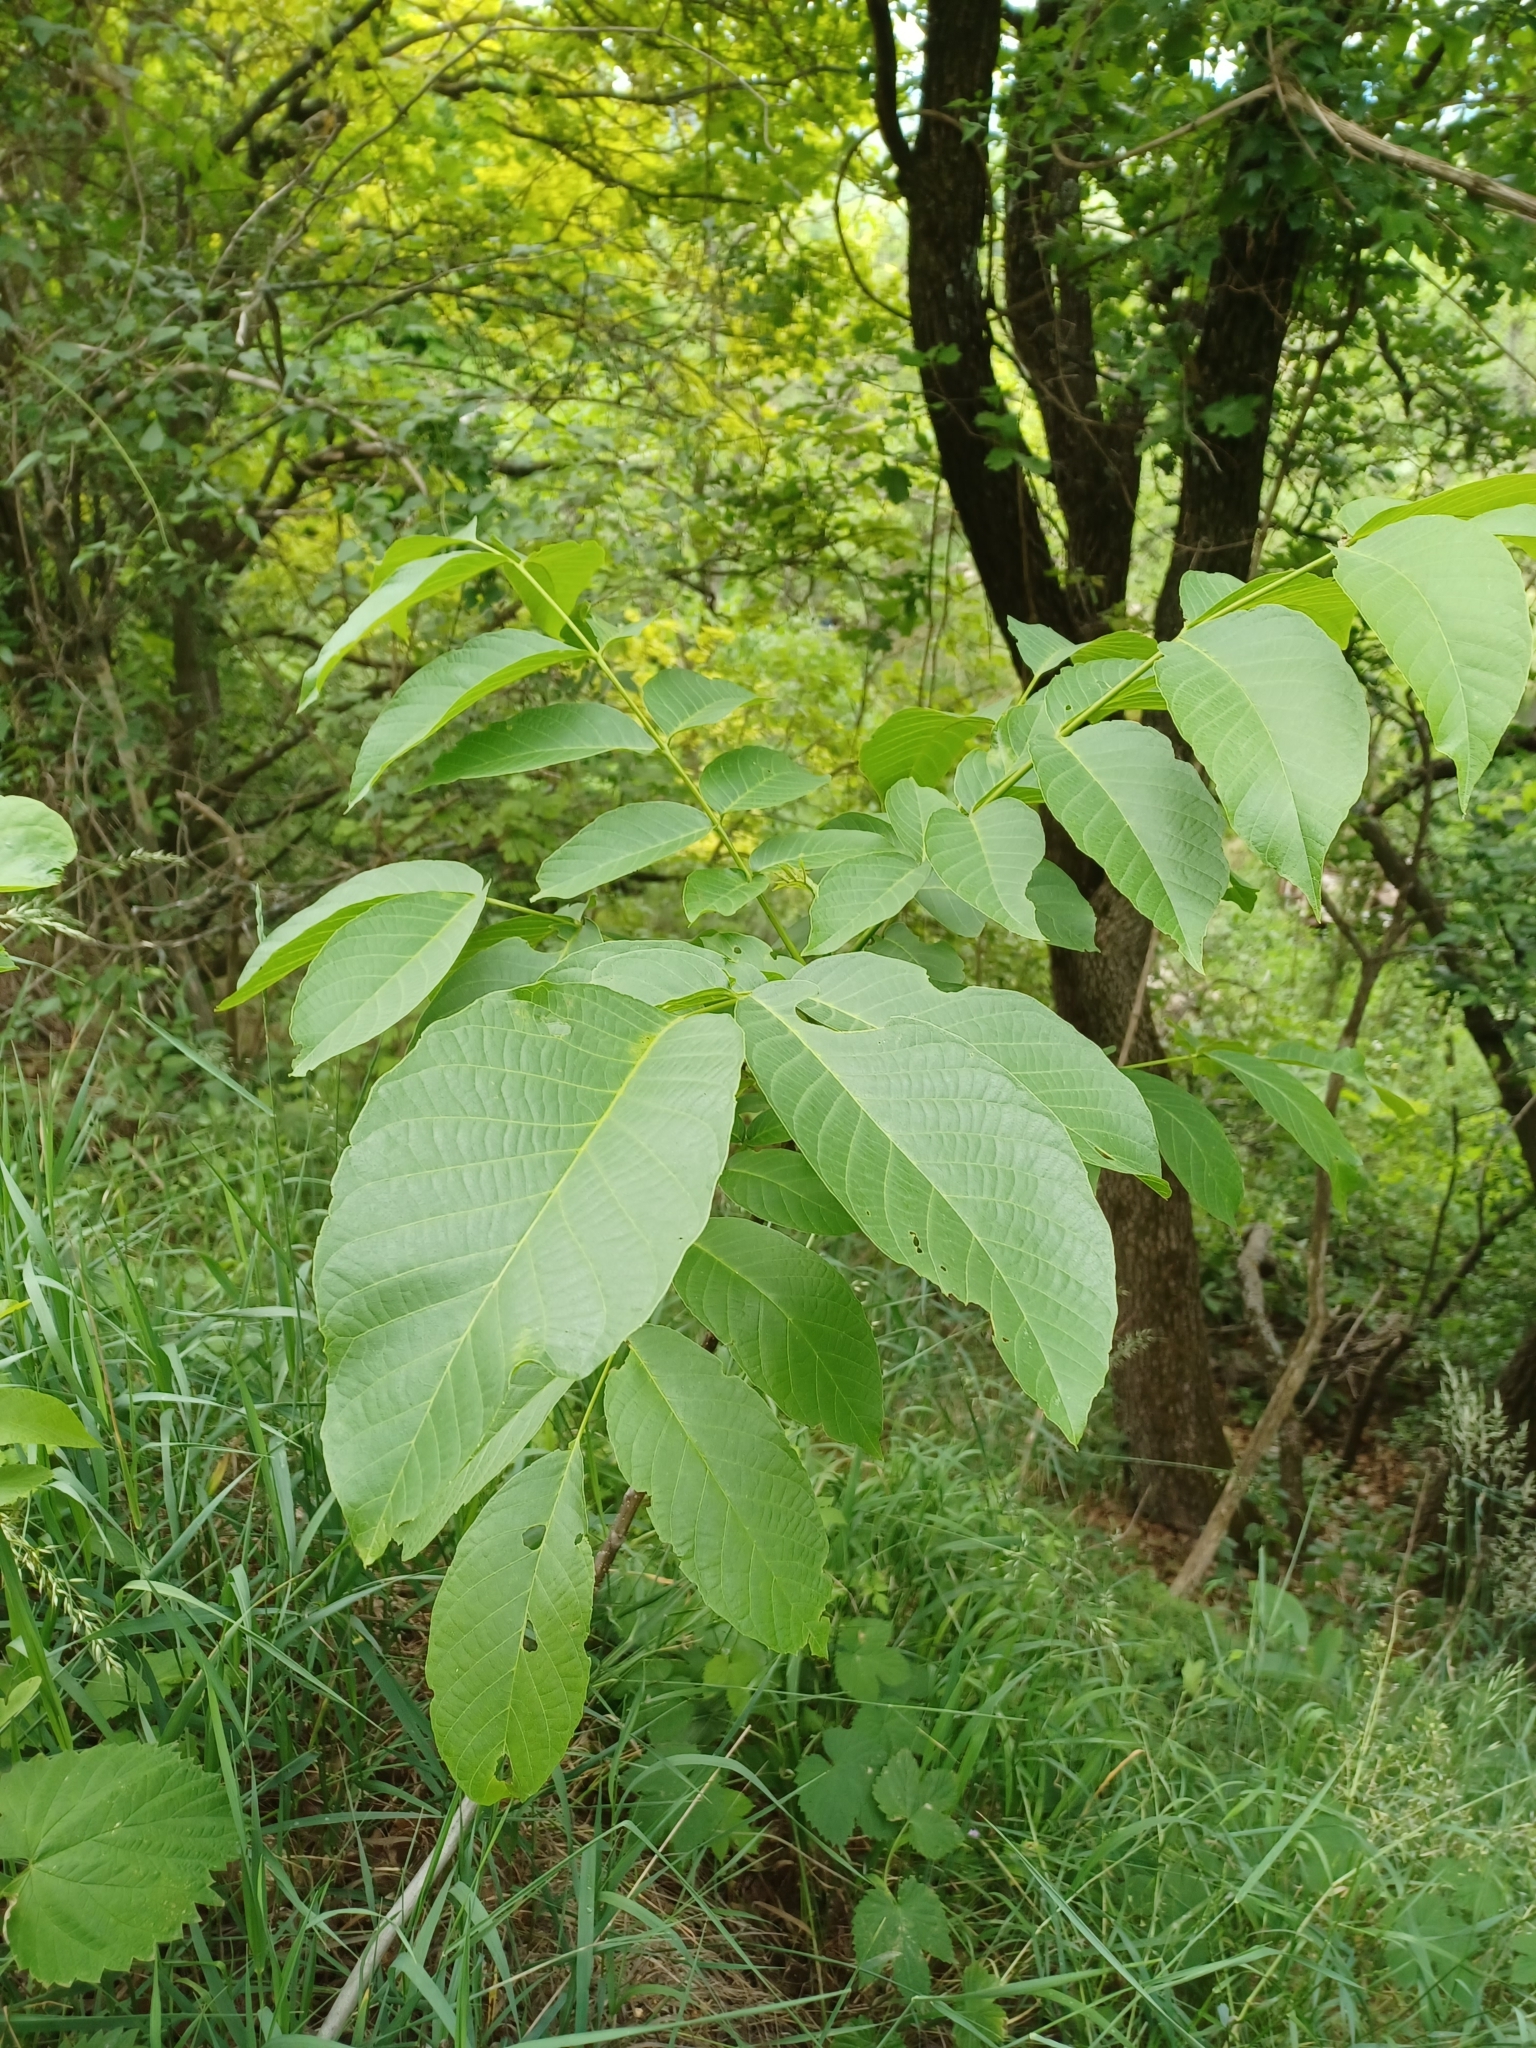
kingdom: Plantae
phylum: Tracheophyta
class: Magnoliopsida
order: Fagales
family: Juglandaceae
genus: Juglans
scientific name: Juglans regia
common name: Walnut
